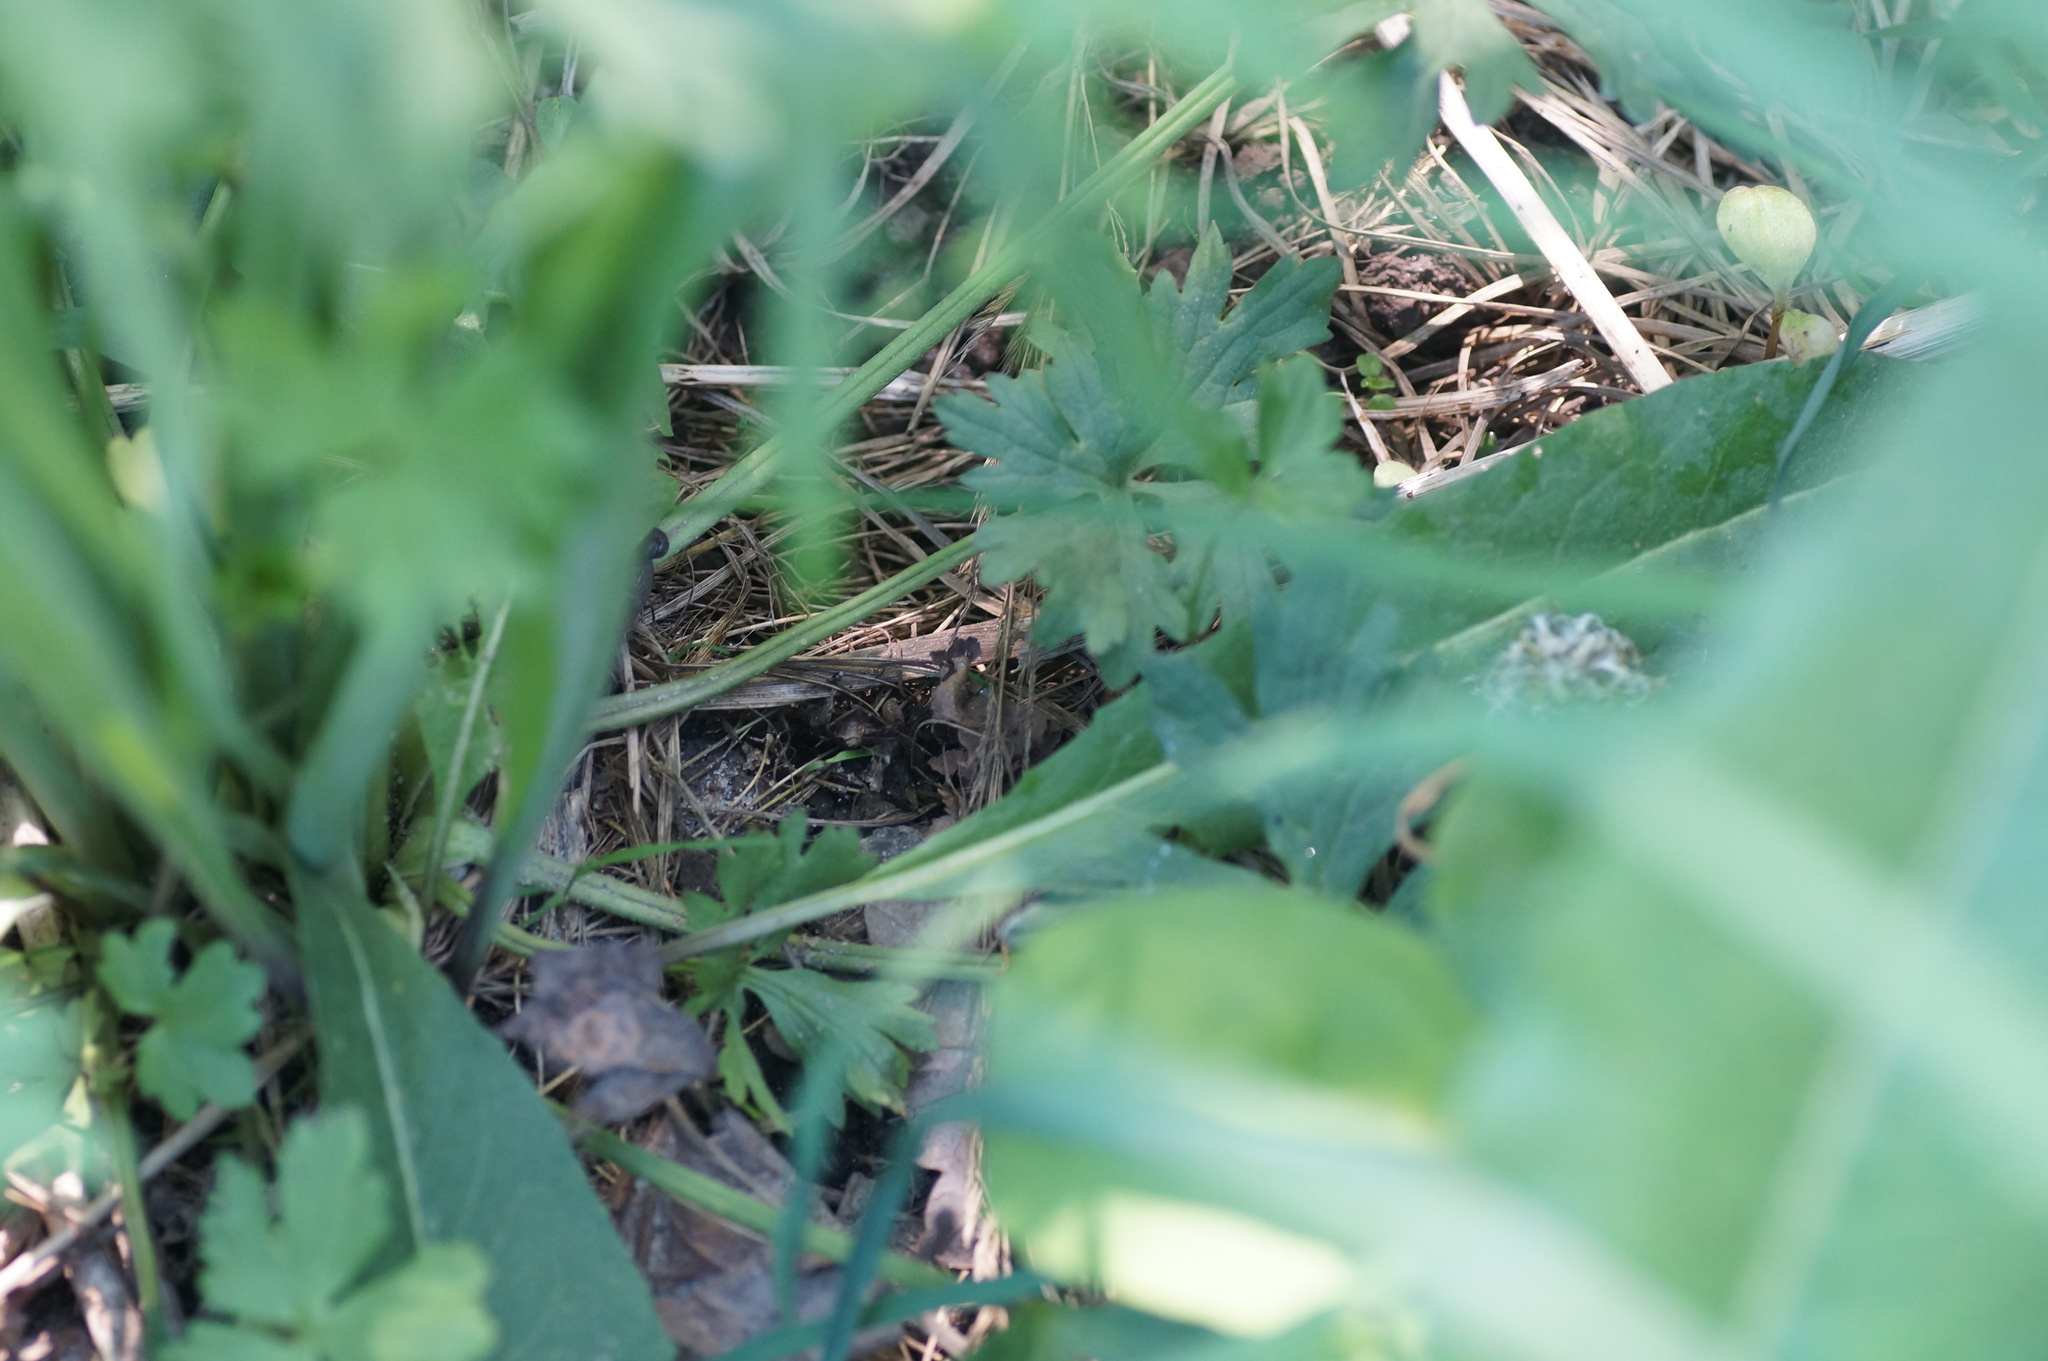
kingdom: Plantae
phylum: Tracheophyta
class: Magnoliopsida
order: Ranunculales
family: Ranunculaceae
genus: Ranunculus
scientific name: Ranunculus acris
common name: Meadow buttercup
